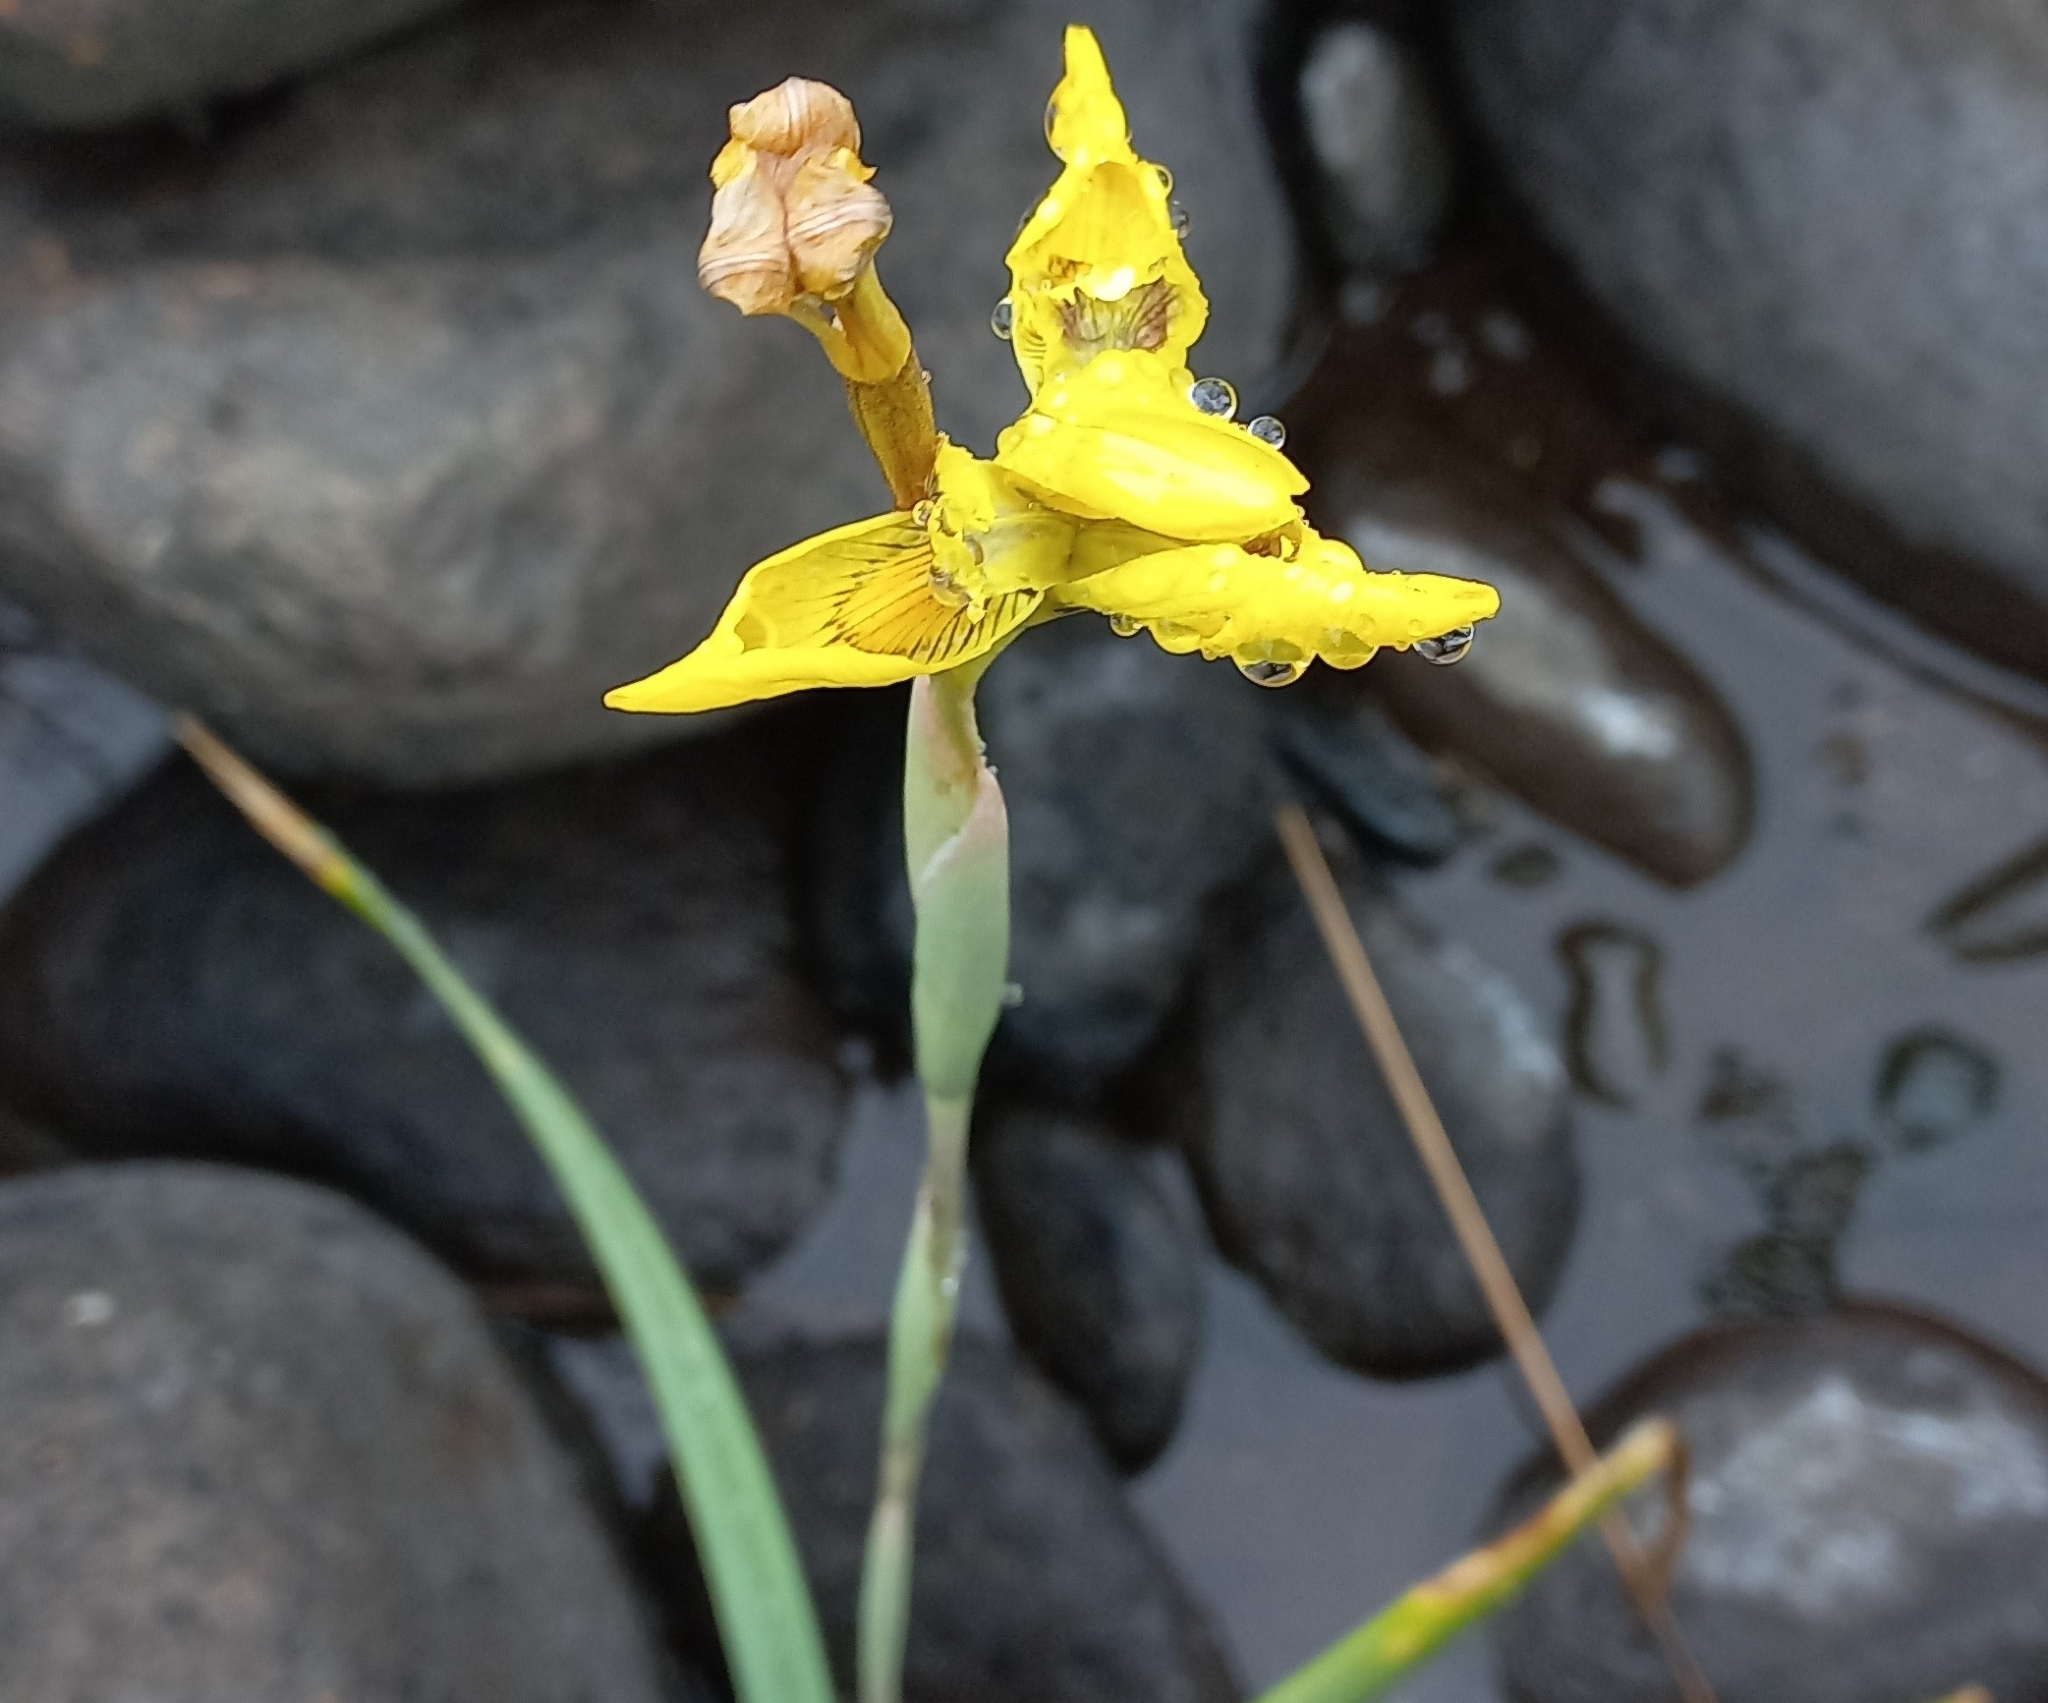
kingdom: Plantae
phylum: Tracheophyta
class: Liliopsida
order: Asparagales
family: Iridaceae
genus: Moraea
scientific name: Moraea huttonii
